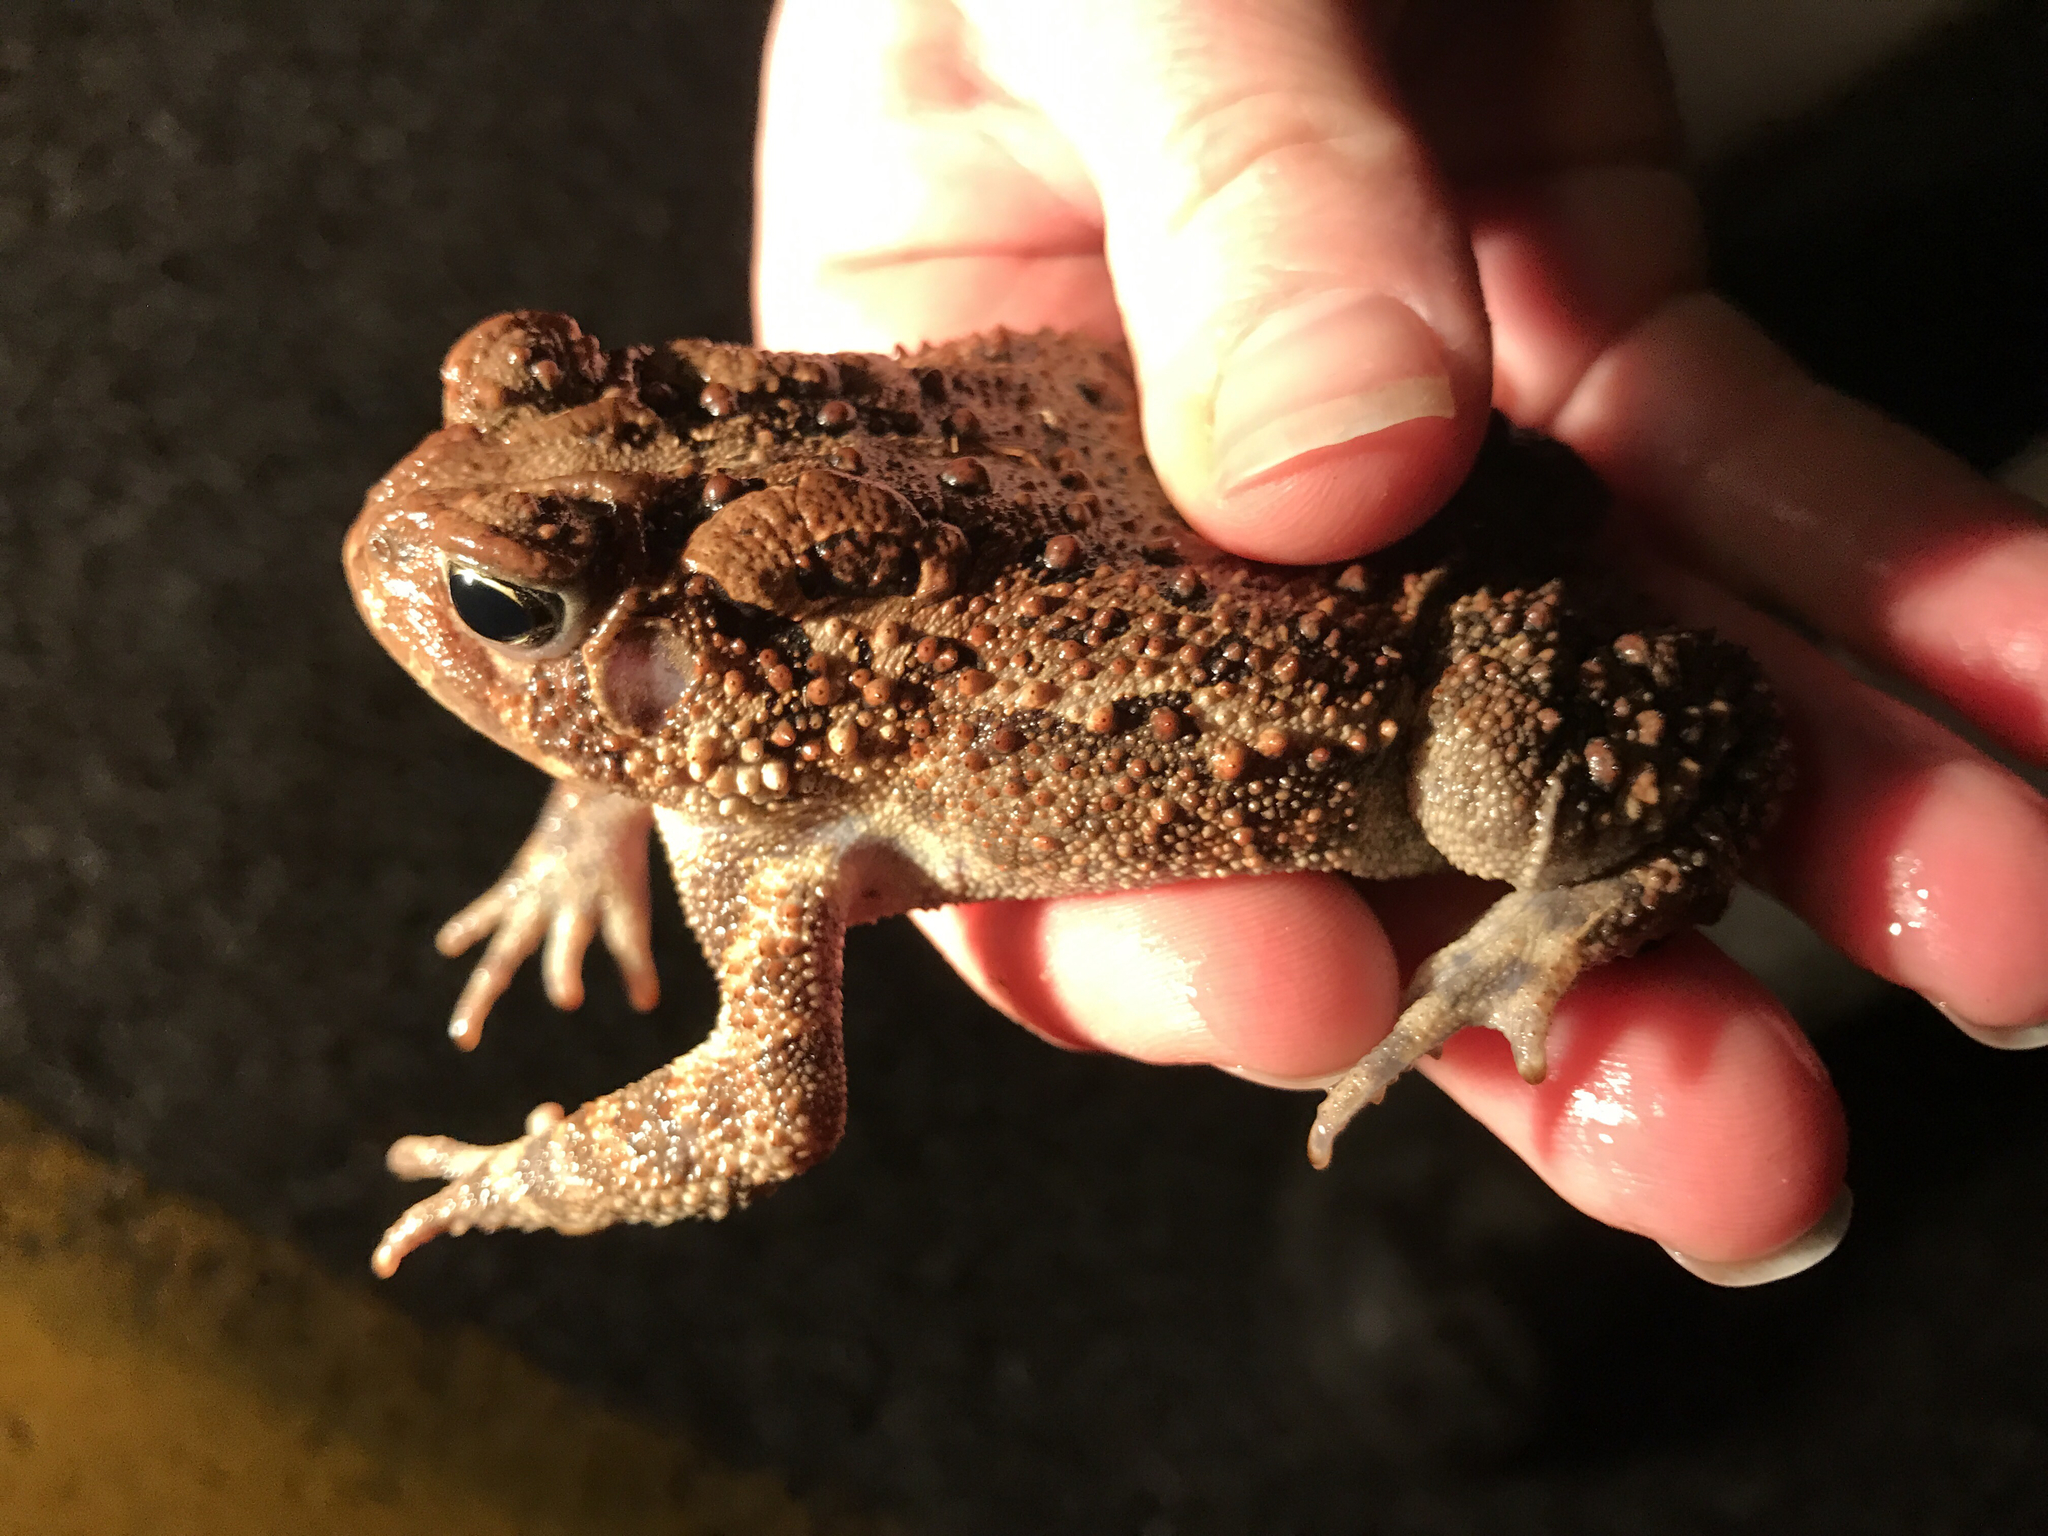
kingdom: Animalia
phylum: Chordata
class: Amphibia
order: Anura
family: Bufonidae
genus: Anaxyrus
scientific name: Anaxyrus americanus
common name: American toad
